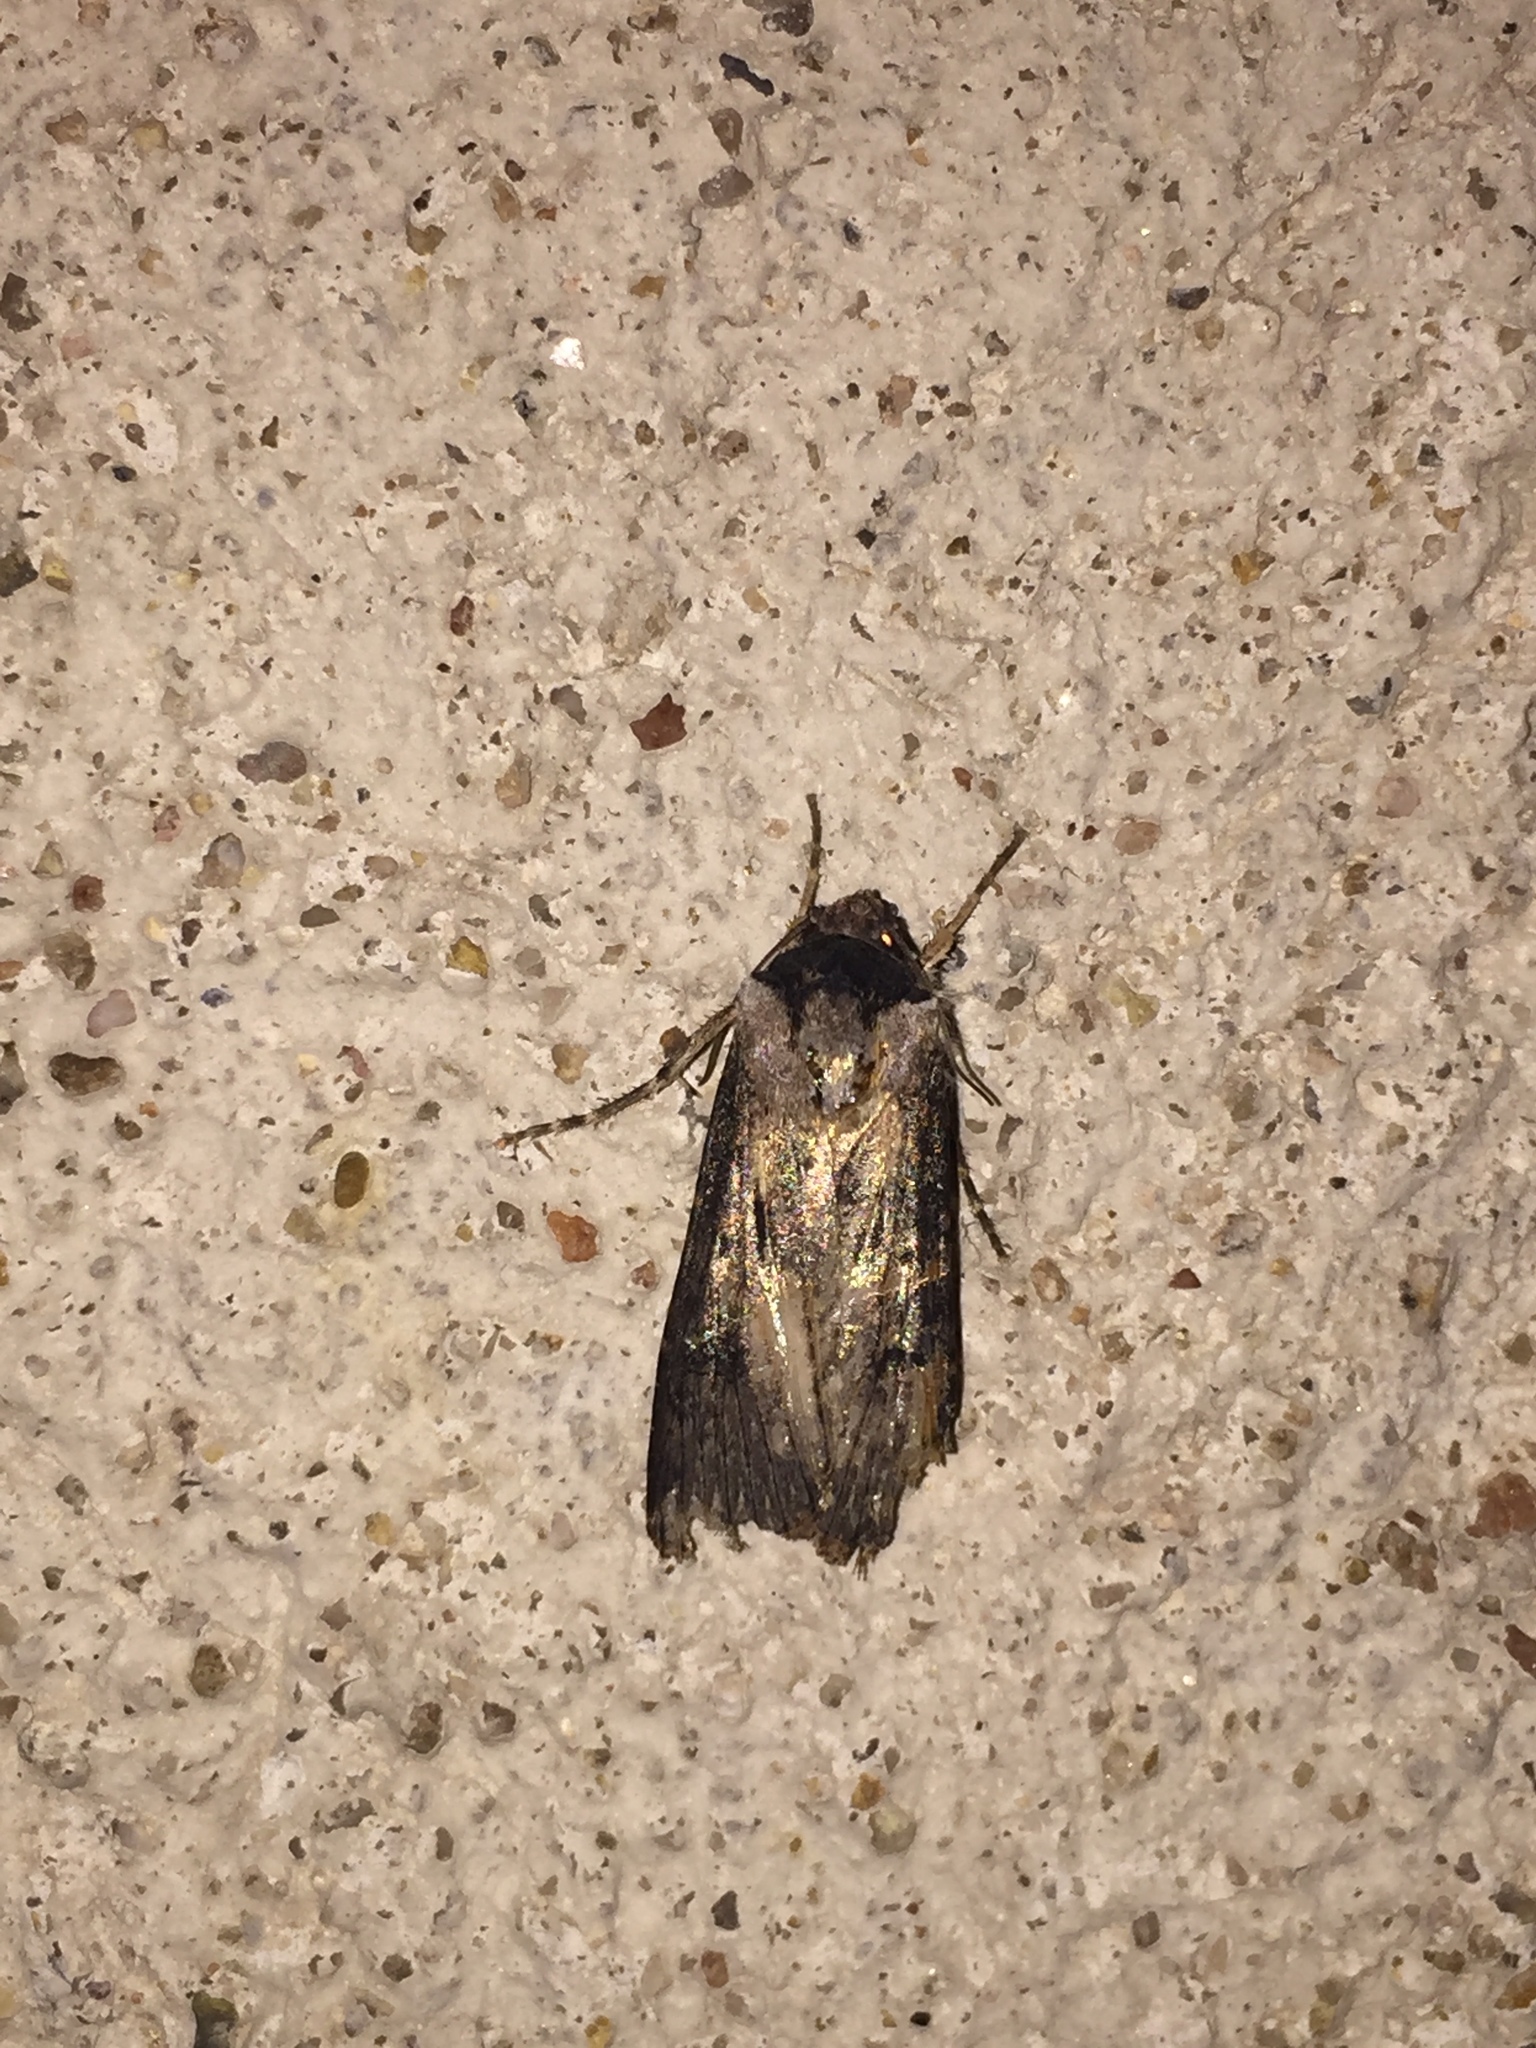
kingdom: Animalia
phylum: Arthropoda
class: Insecta
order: Lepidoptera
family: Noctuidae
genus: Feltia
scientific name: Feltia subterranea
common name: Granulate cutworm
